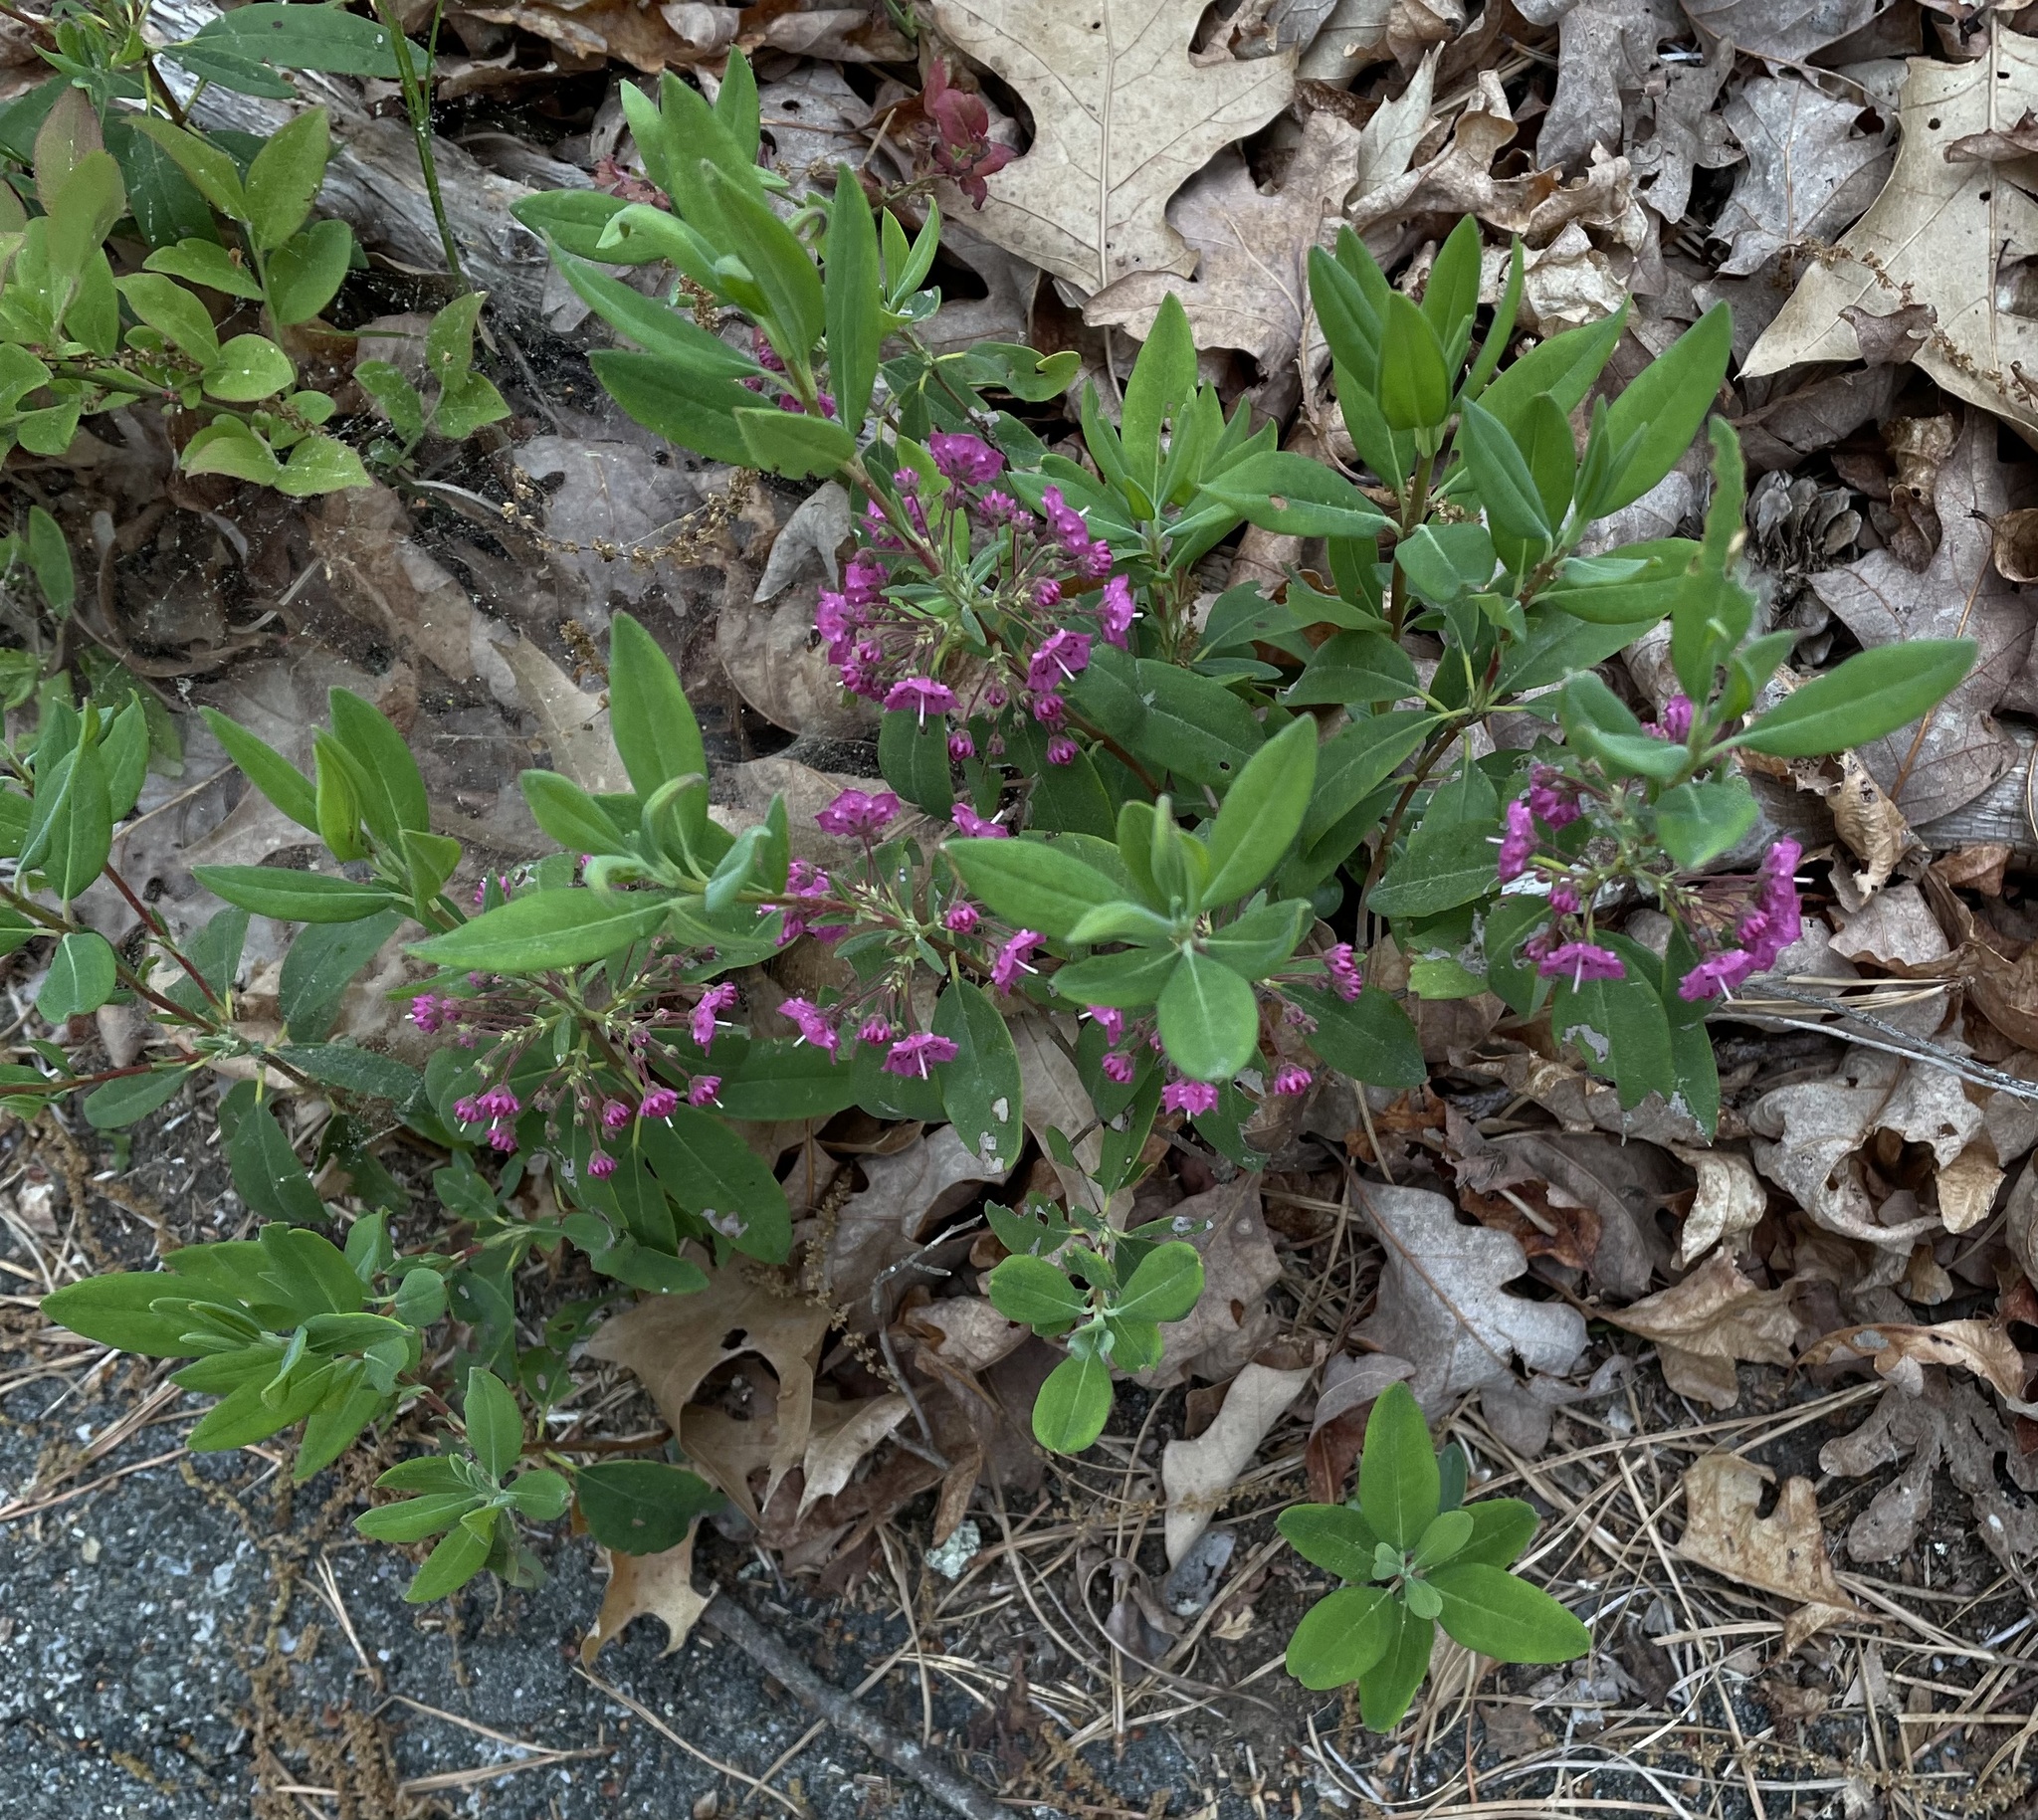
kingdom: Plantae
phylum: Tracheophyta
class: Magnoliopsida
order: Ericales
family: Ericaceae
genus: Kalmia
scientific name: Kalmia angustifolia
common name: Sheep-laurel
